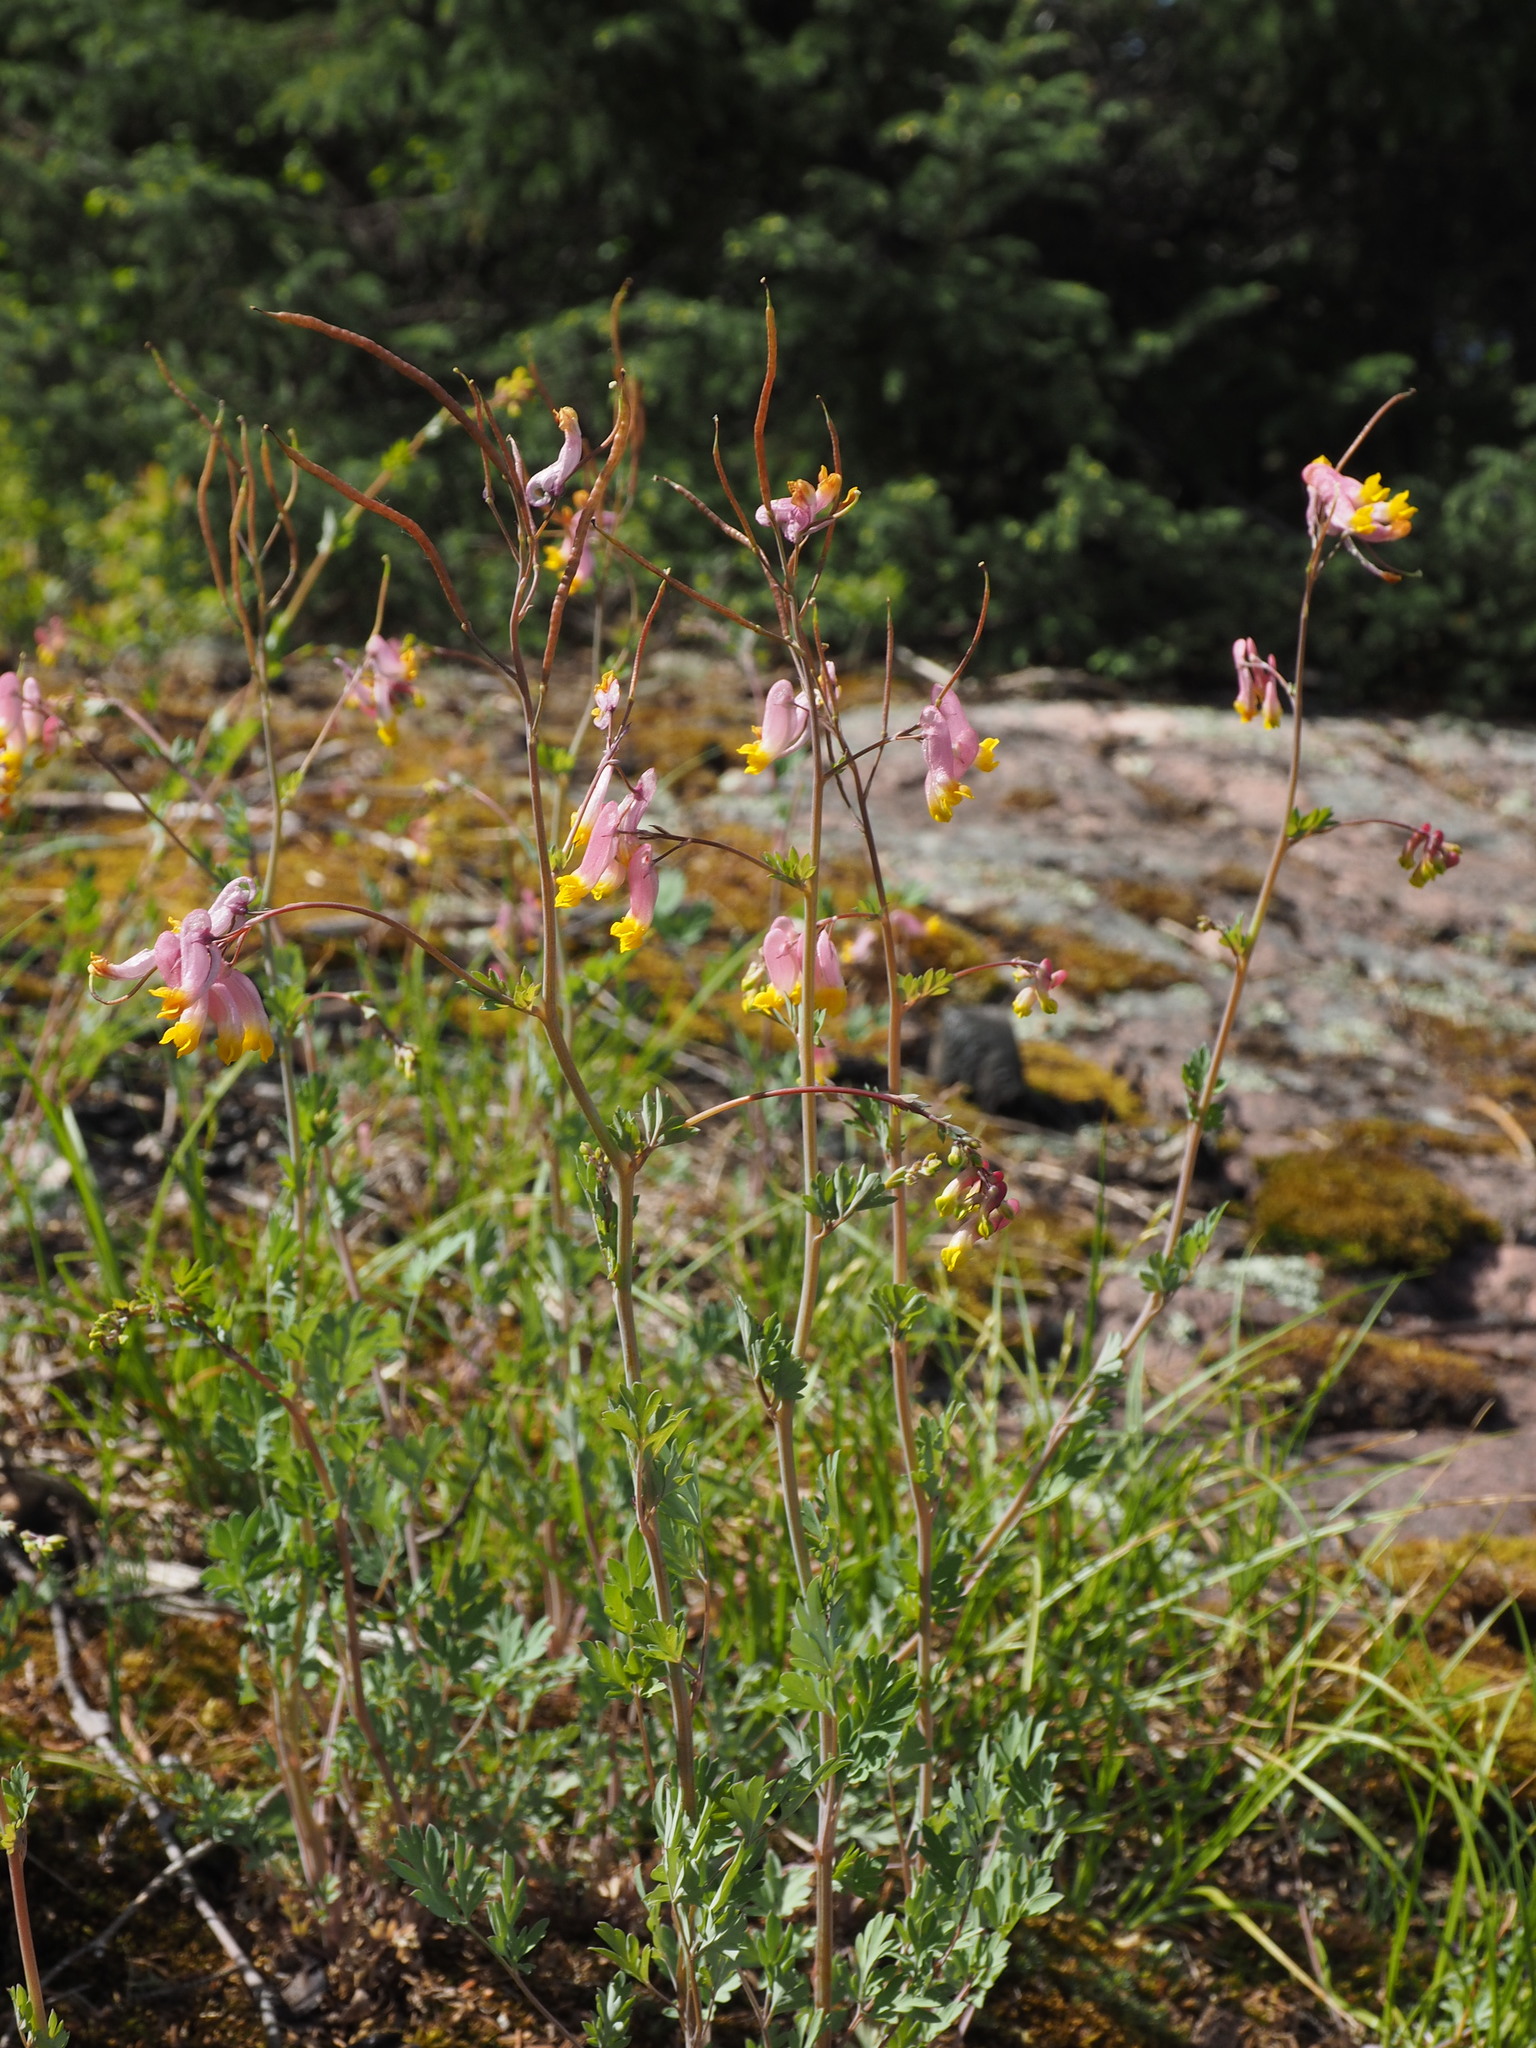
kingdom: Plantae
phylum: Tracheophyta
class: Magnoliopsida
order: Ranunculales
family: Papaveraceae
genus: Capnoides
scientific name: Capnoides sempervirens
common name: Rock harlequin
